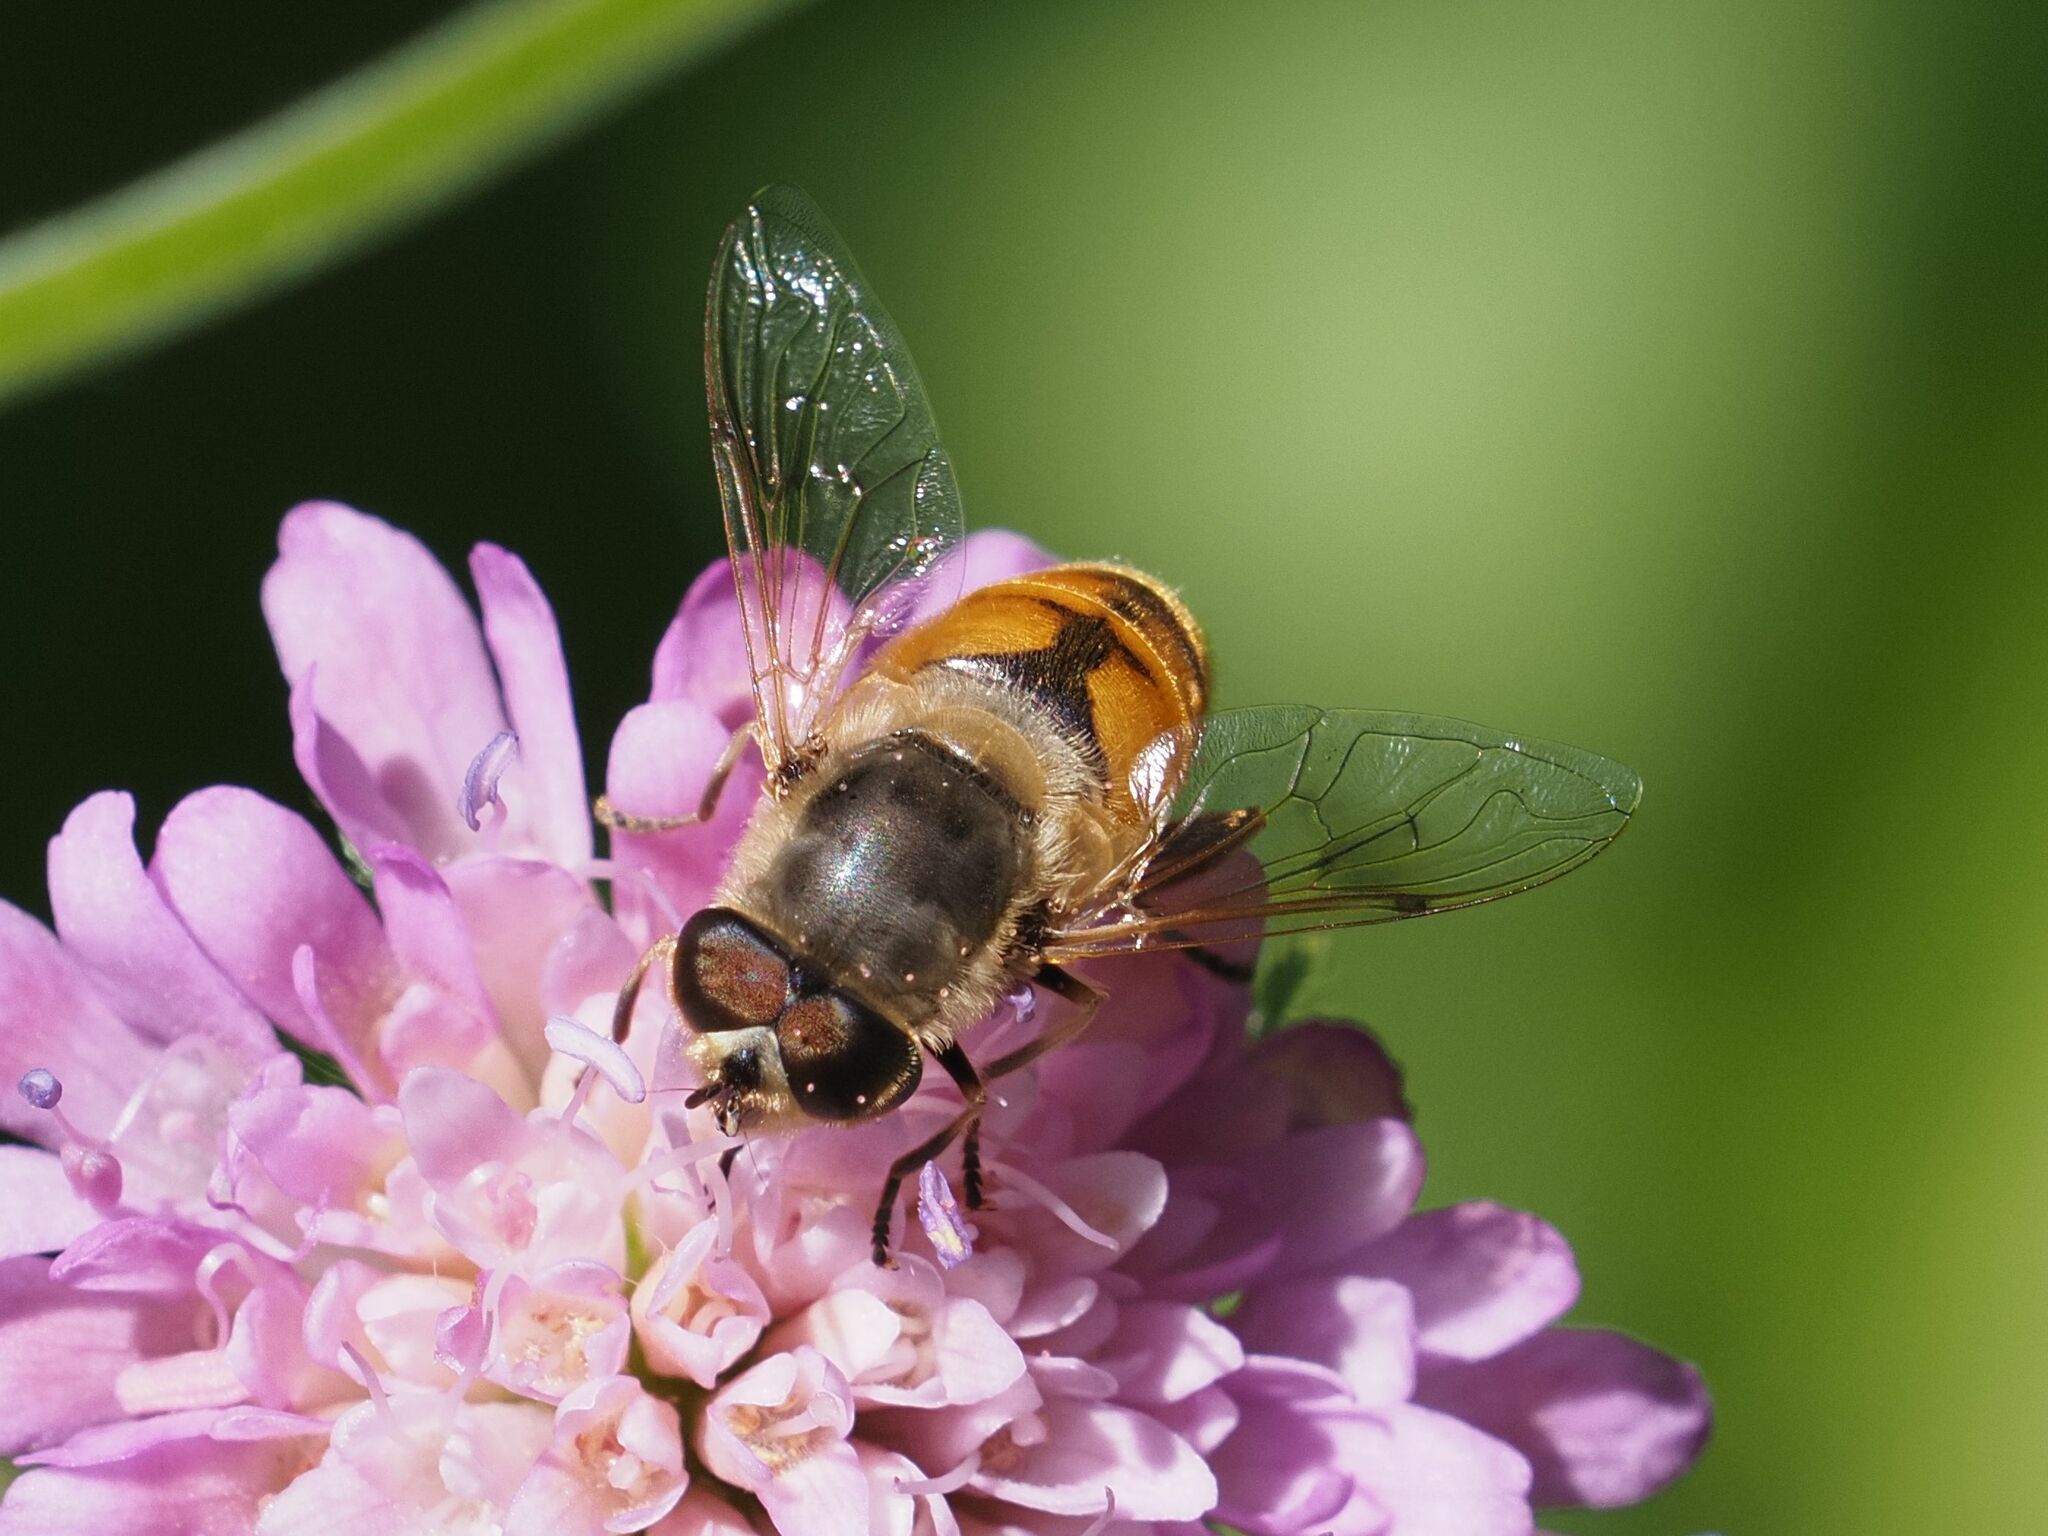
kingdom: Animalia
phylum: Arthropoda
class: Insecta
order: Diptera
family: Syrphidae
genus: Eristalis
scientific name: Eristalis tenax
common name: Drone fly
